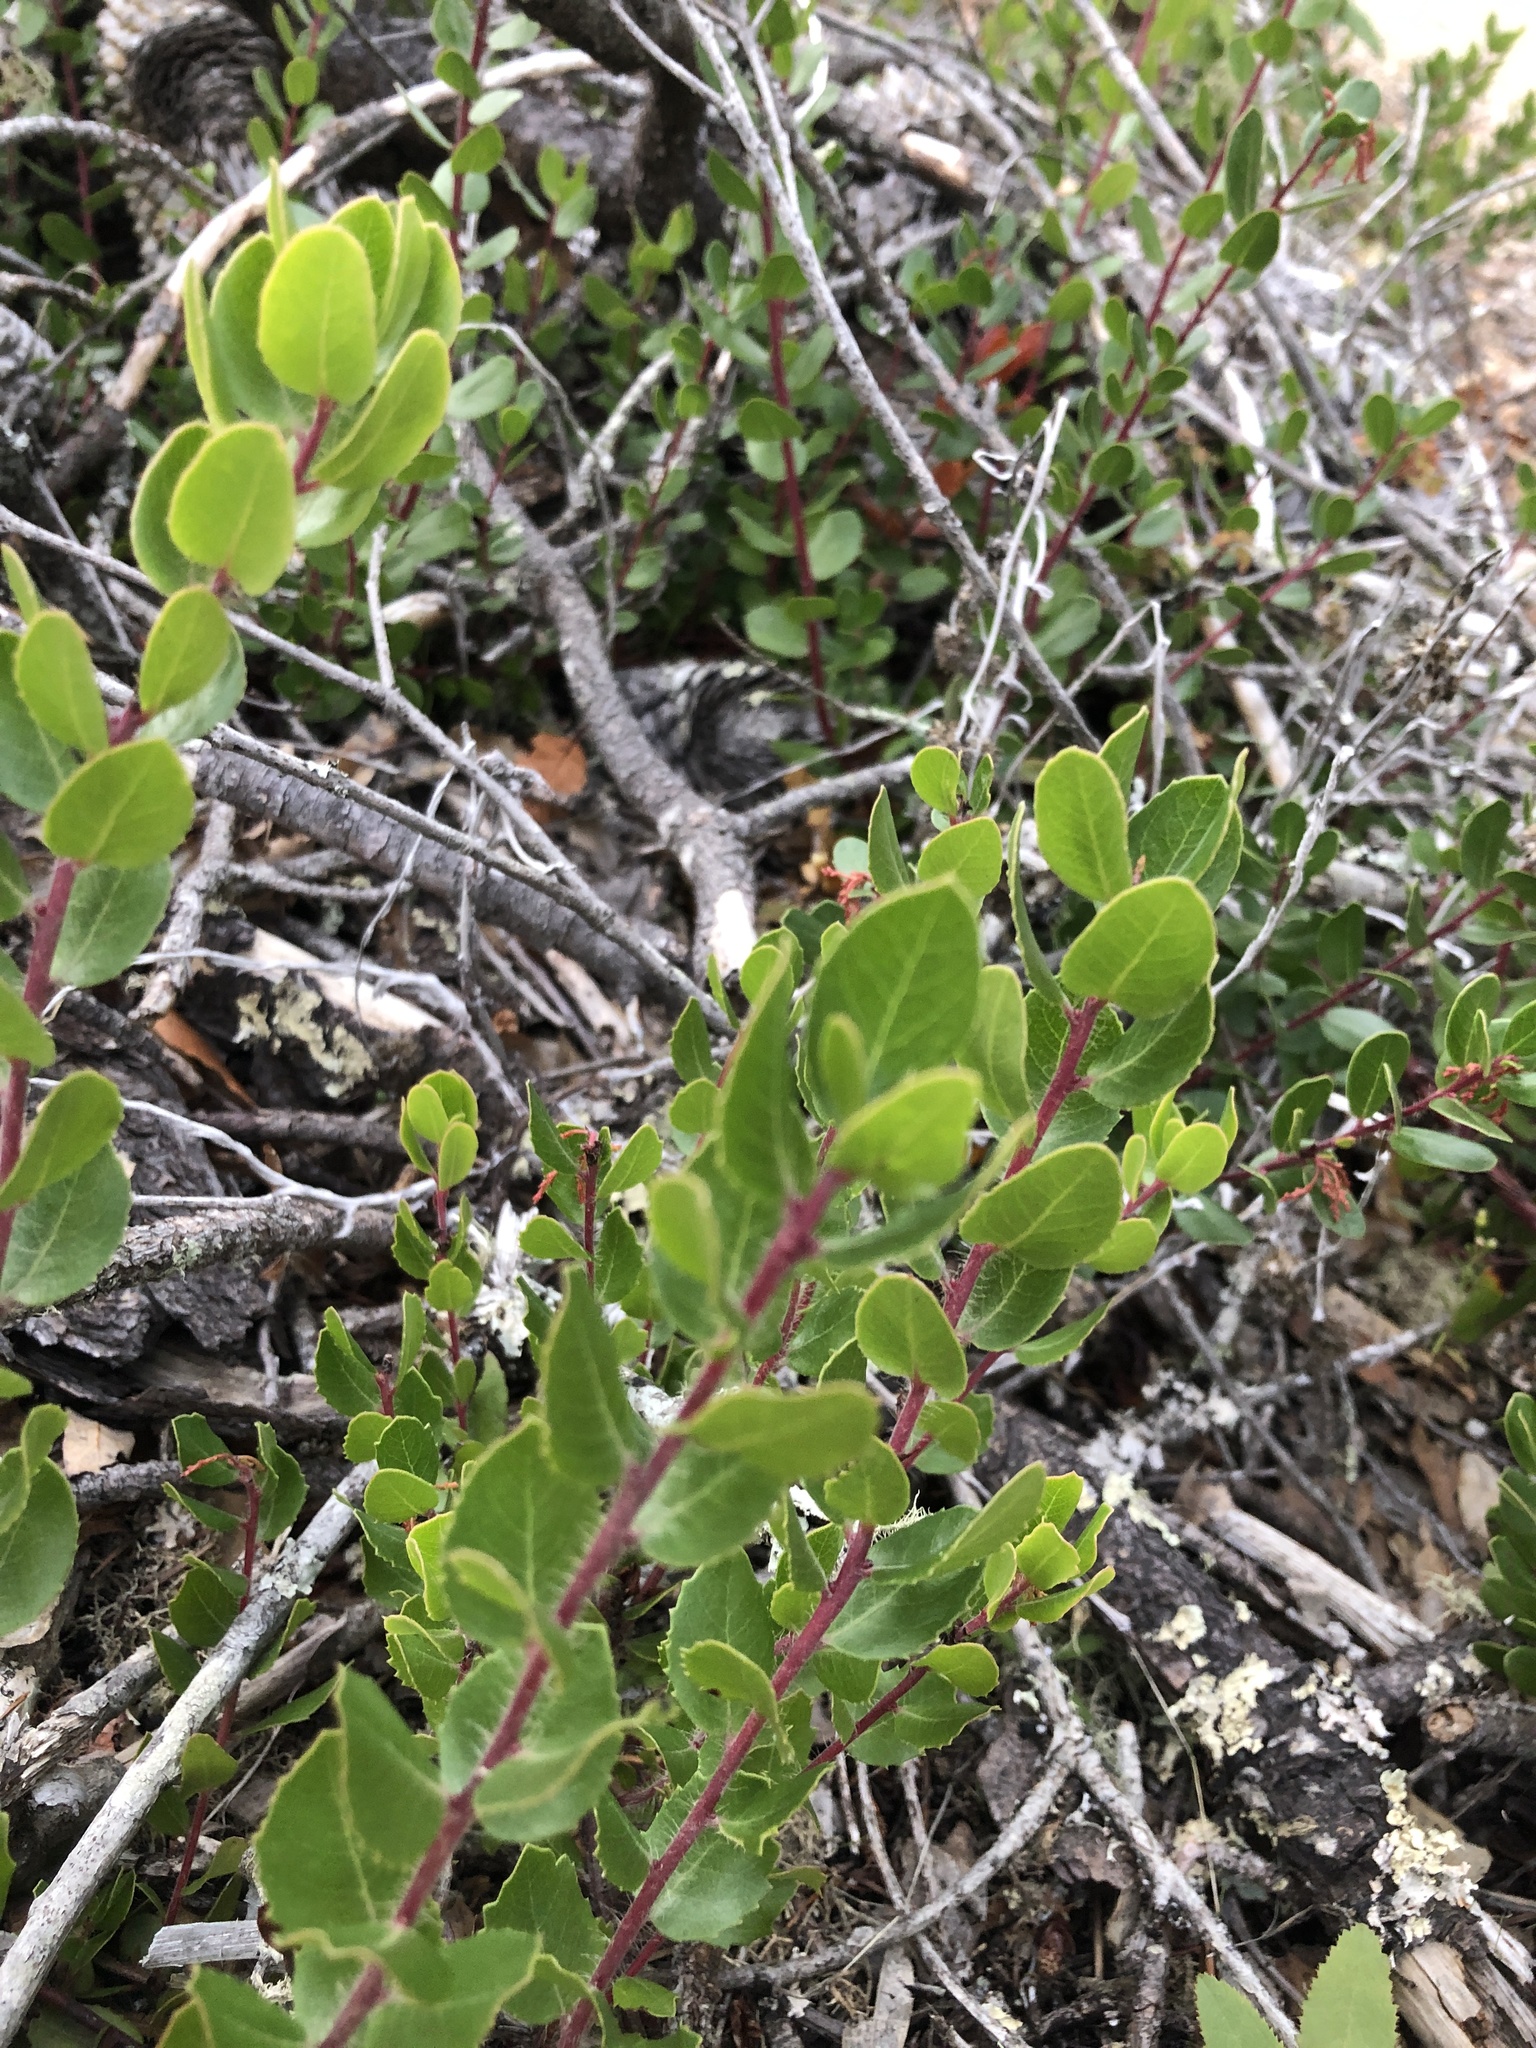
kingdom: Plantae
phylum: Tracheophyta
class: Magnoliopsida
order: Ericales
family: Ericaceae
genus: Arctostaphylos
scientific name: Arctostaphylos nummularia
